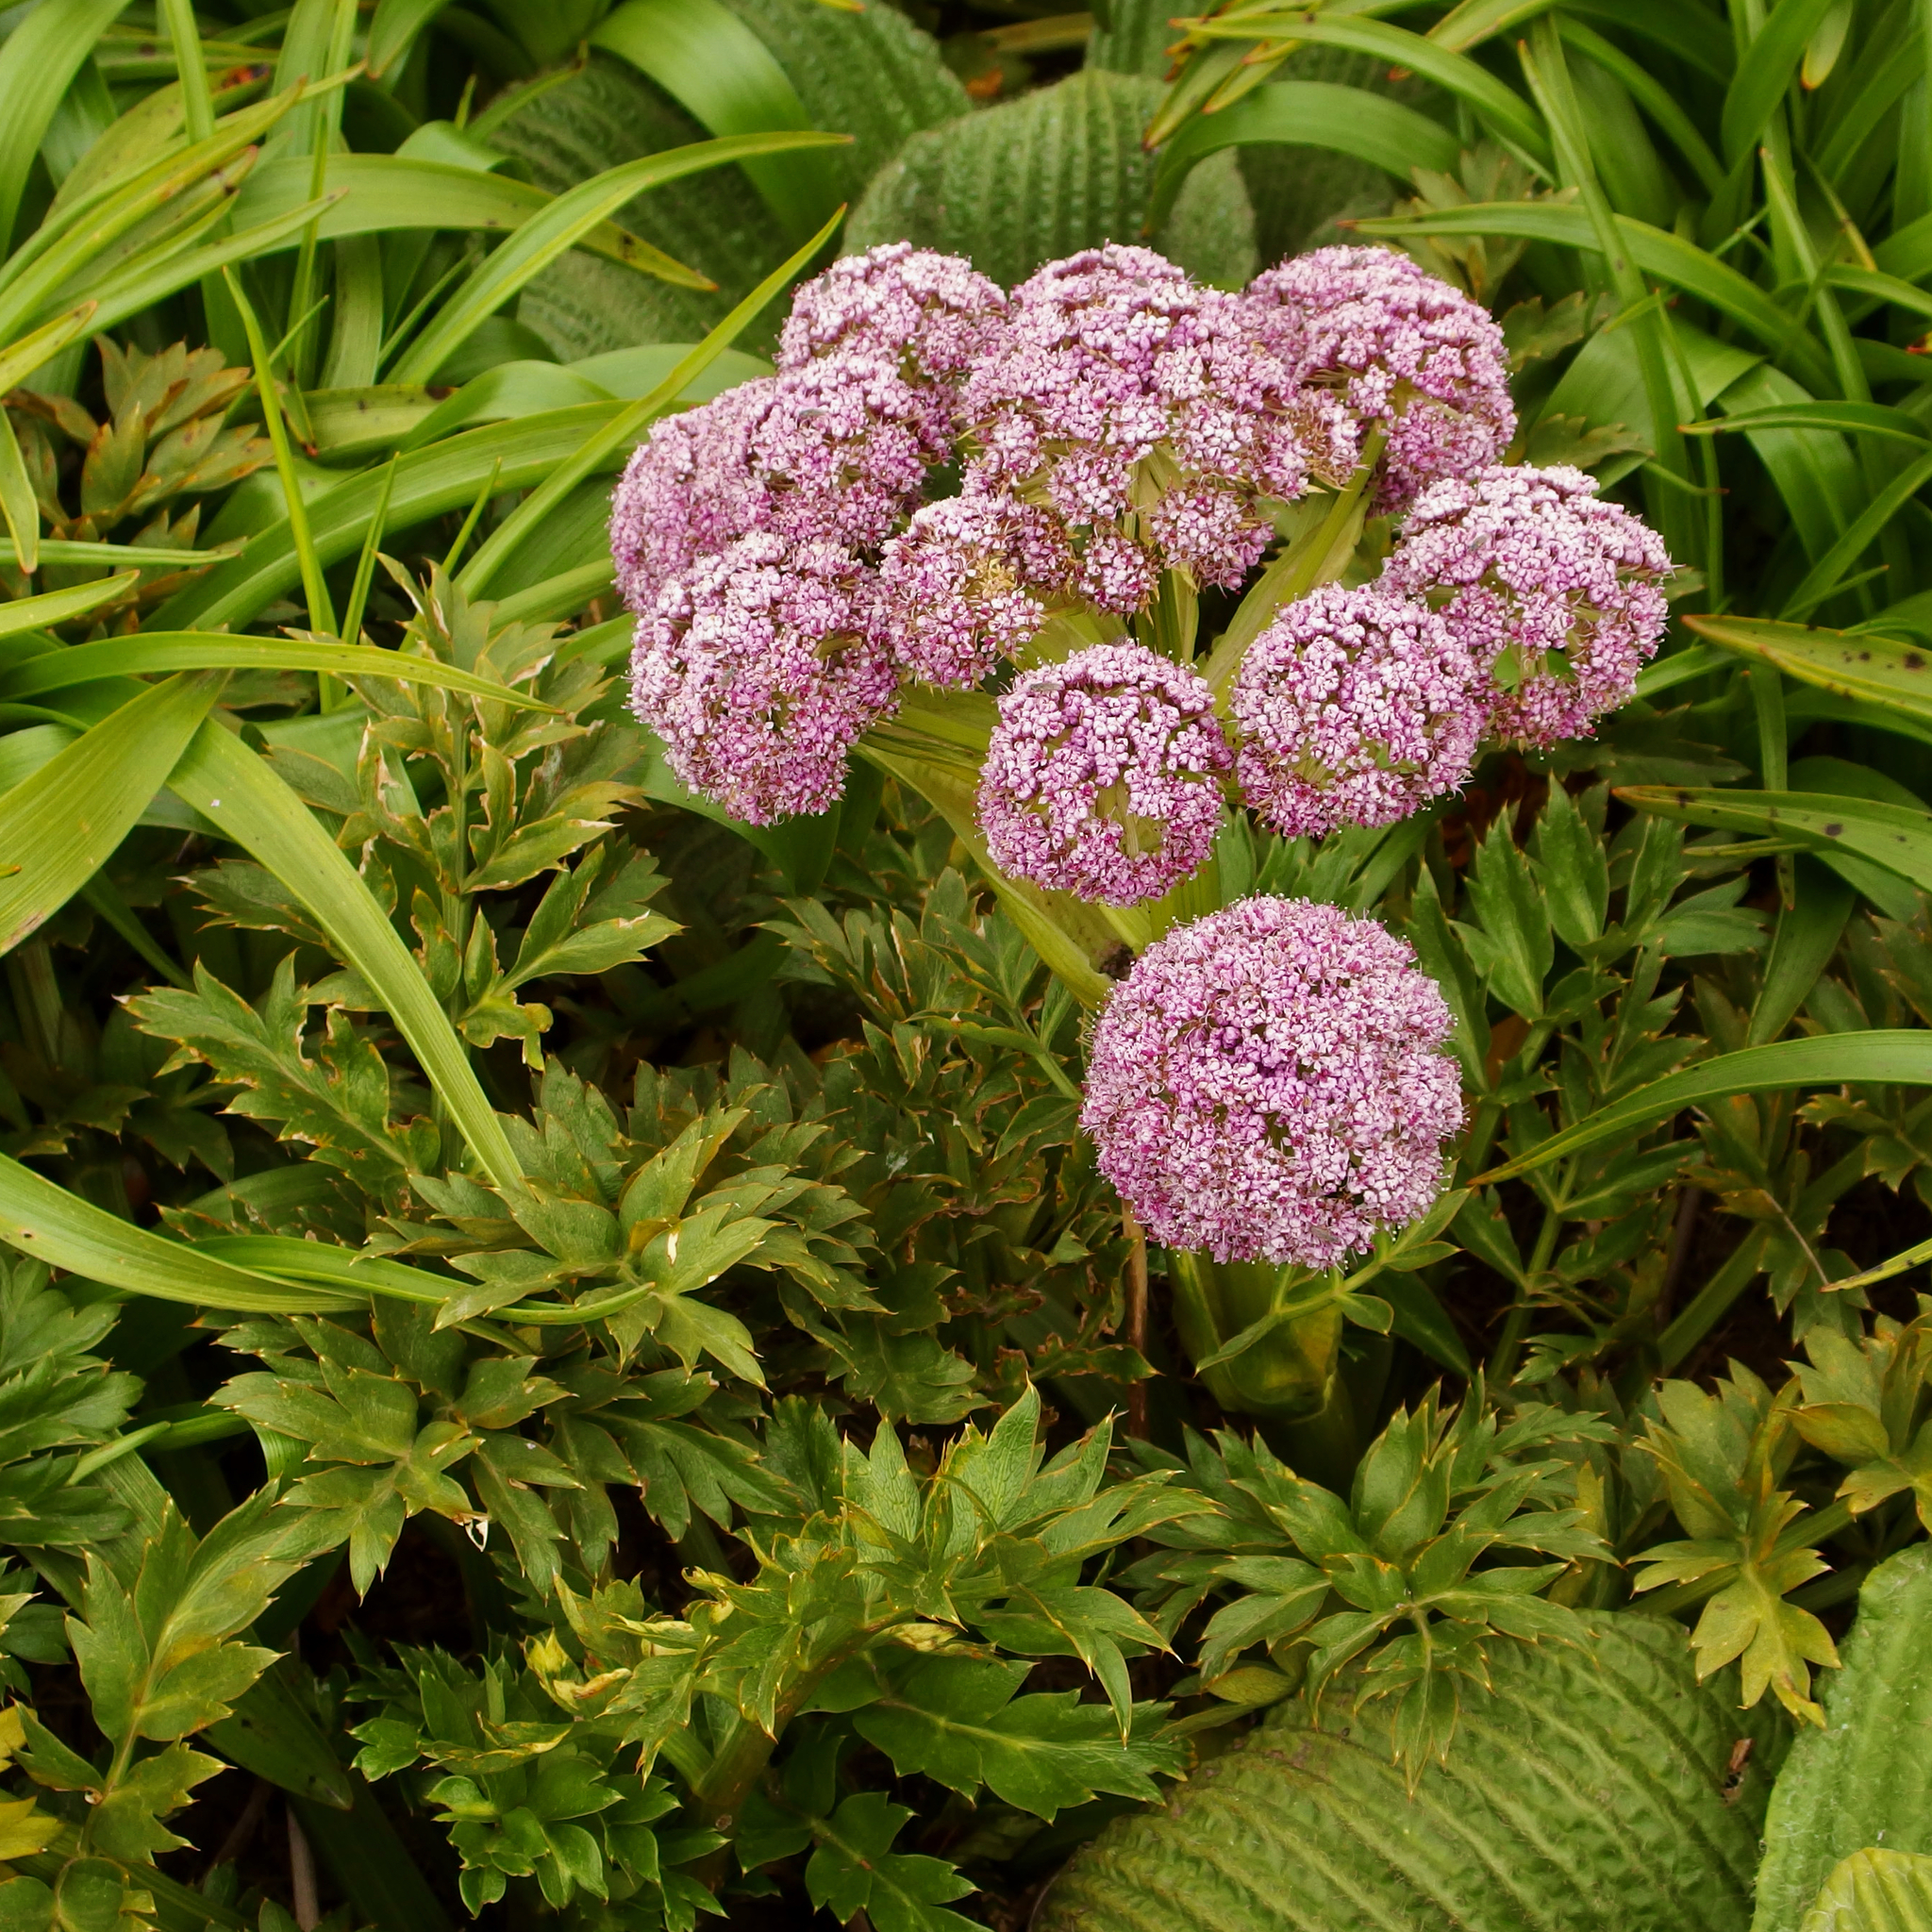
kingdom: Plantae
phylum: Tracheophyta
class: Magnoliopsida
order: Apiales
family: Apiaceae
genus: Anisotome
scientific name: Anisotome latifolia
